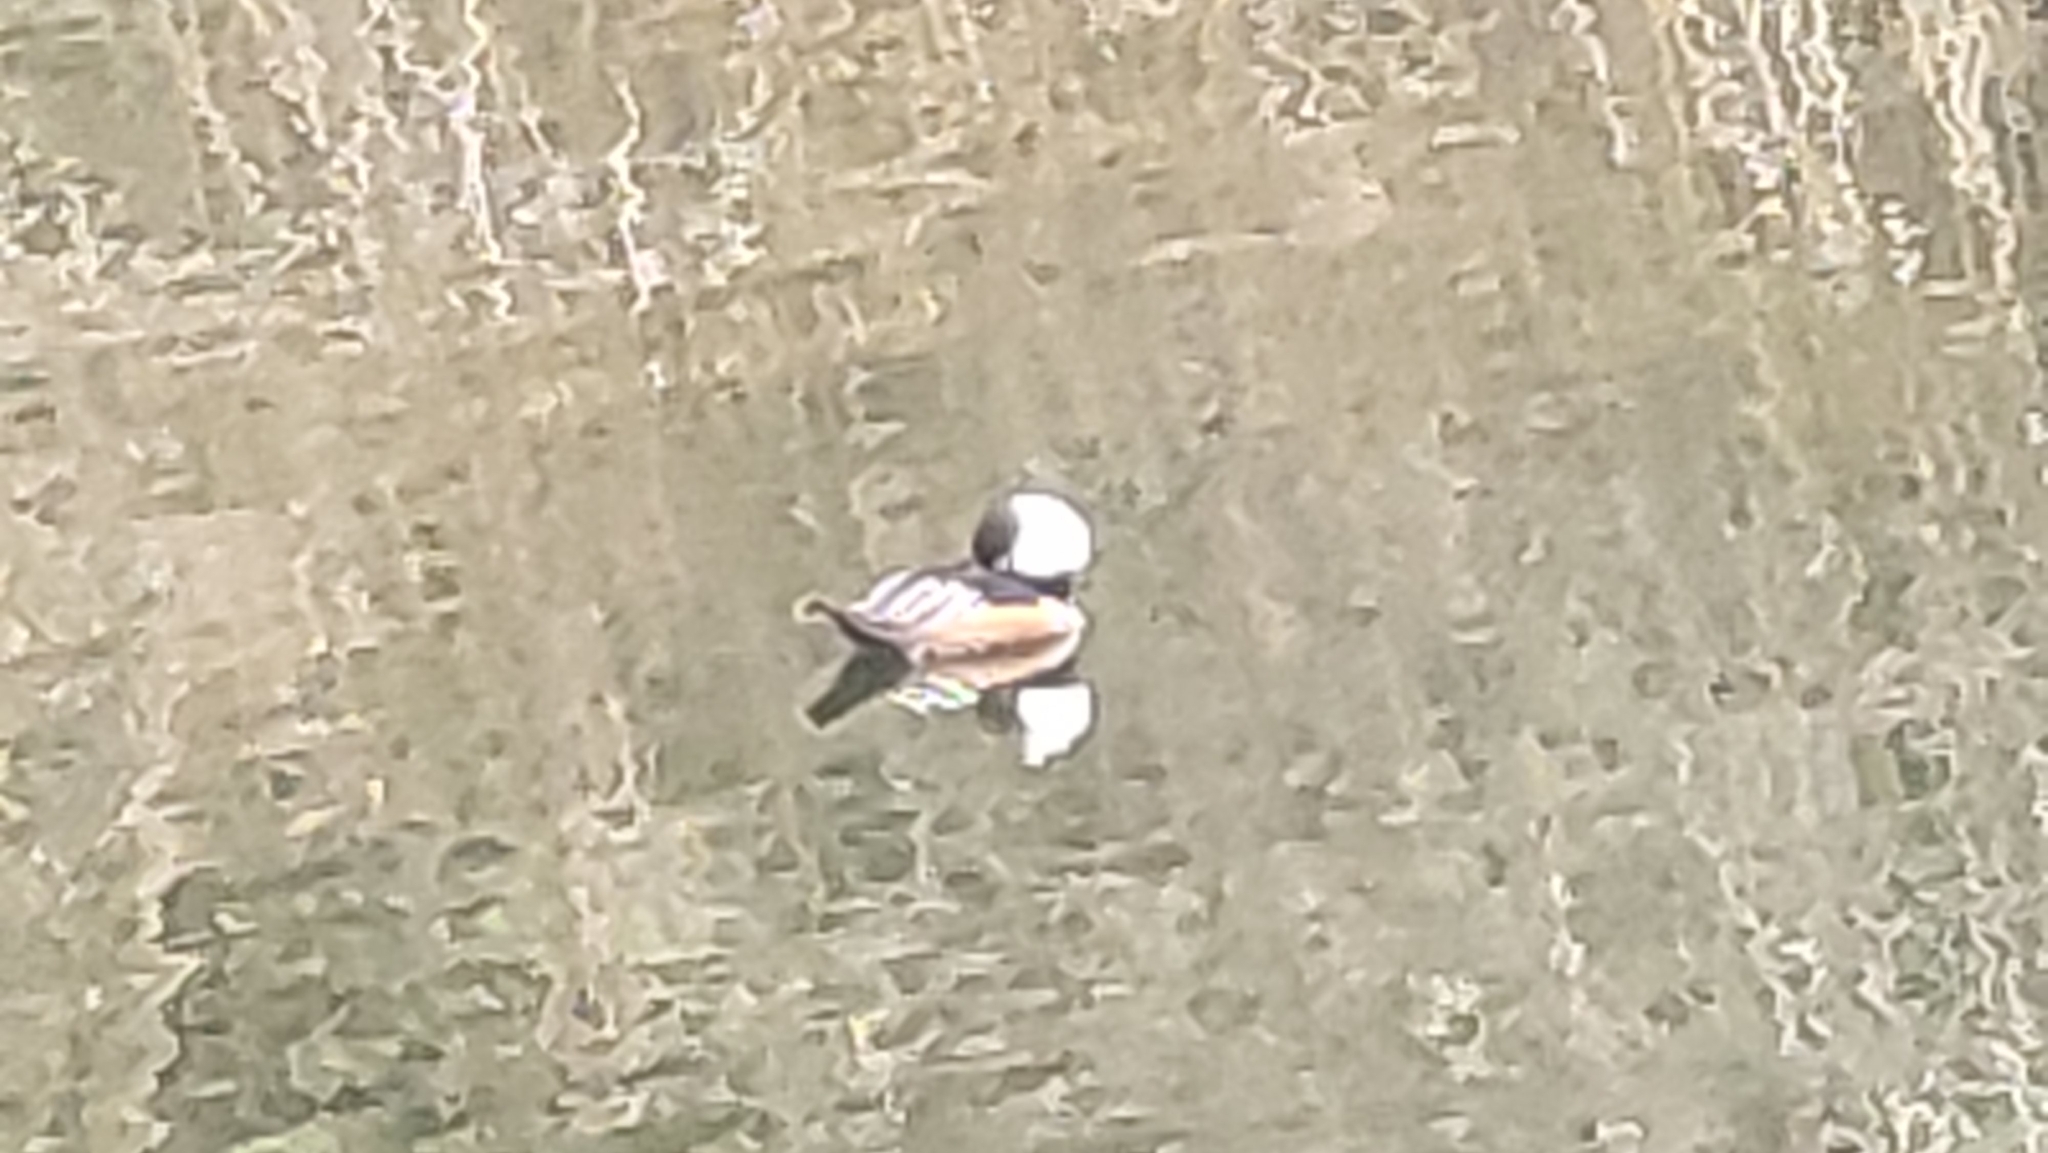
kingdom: Animalia
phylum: Chordata
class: Aves
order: Anseriformes
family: Anatidae
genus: Lophodytes
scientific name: Lophodytes cucullatus
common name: Hooded merganser
